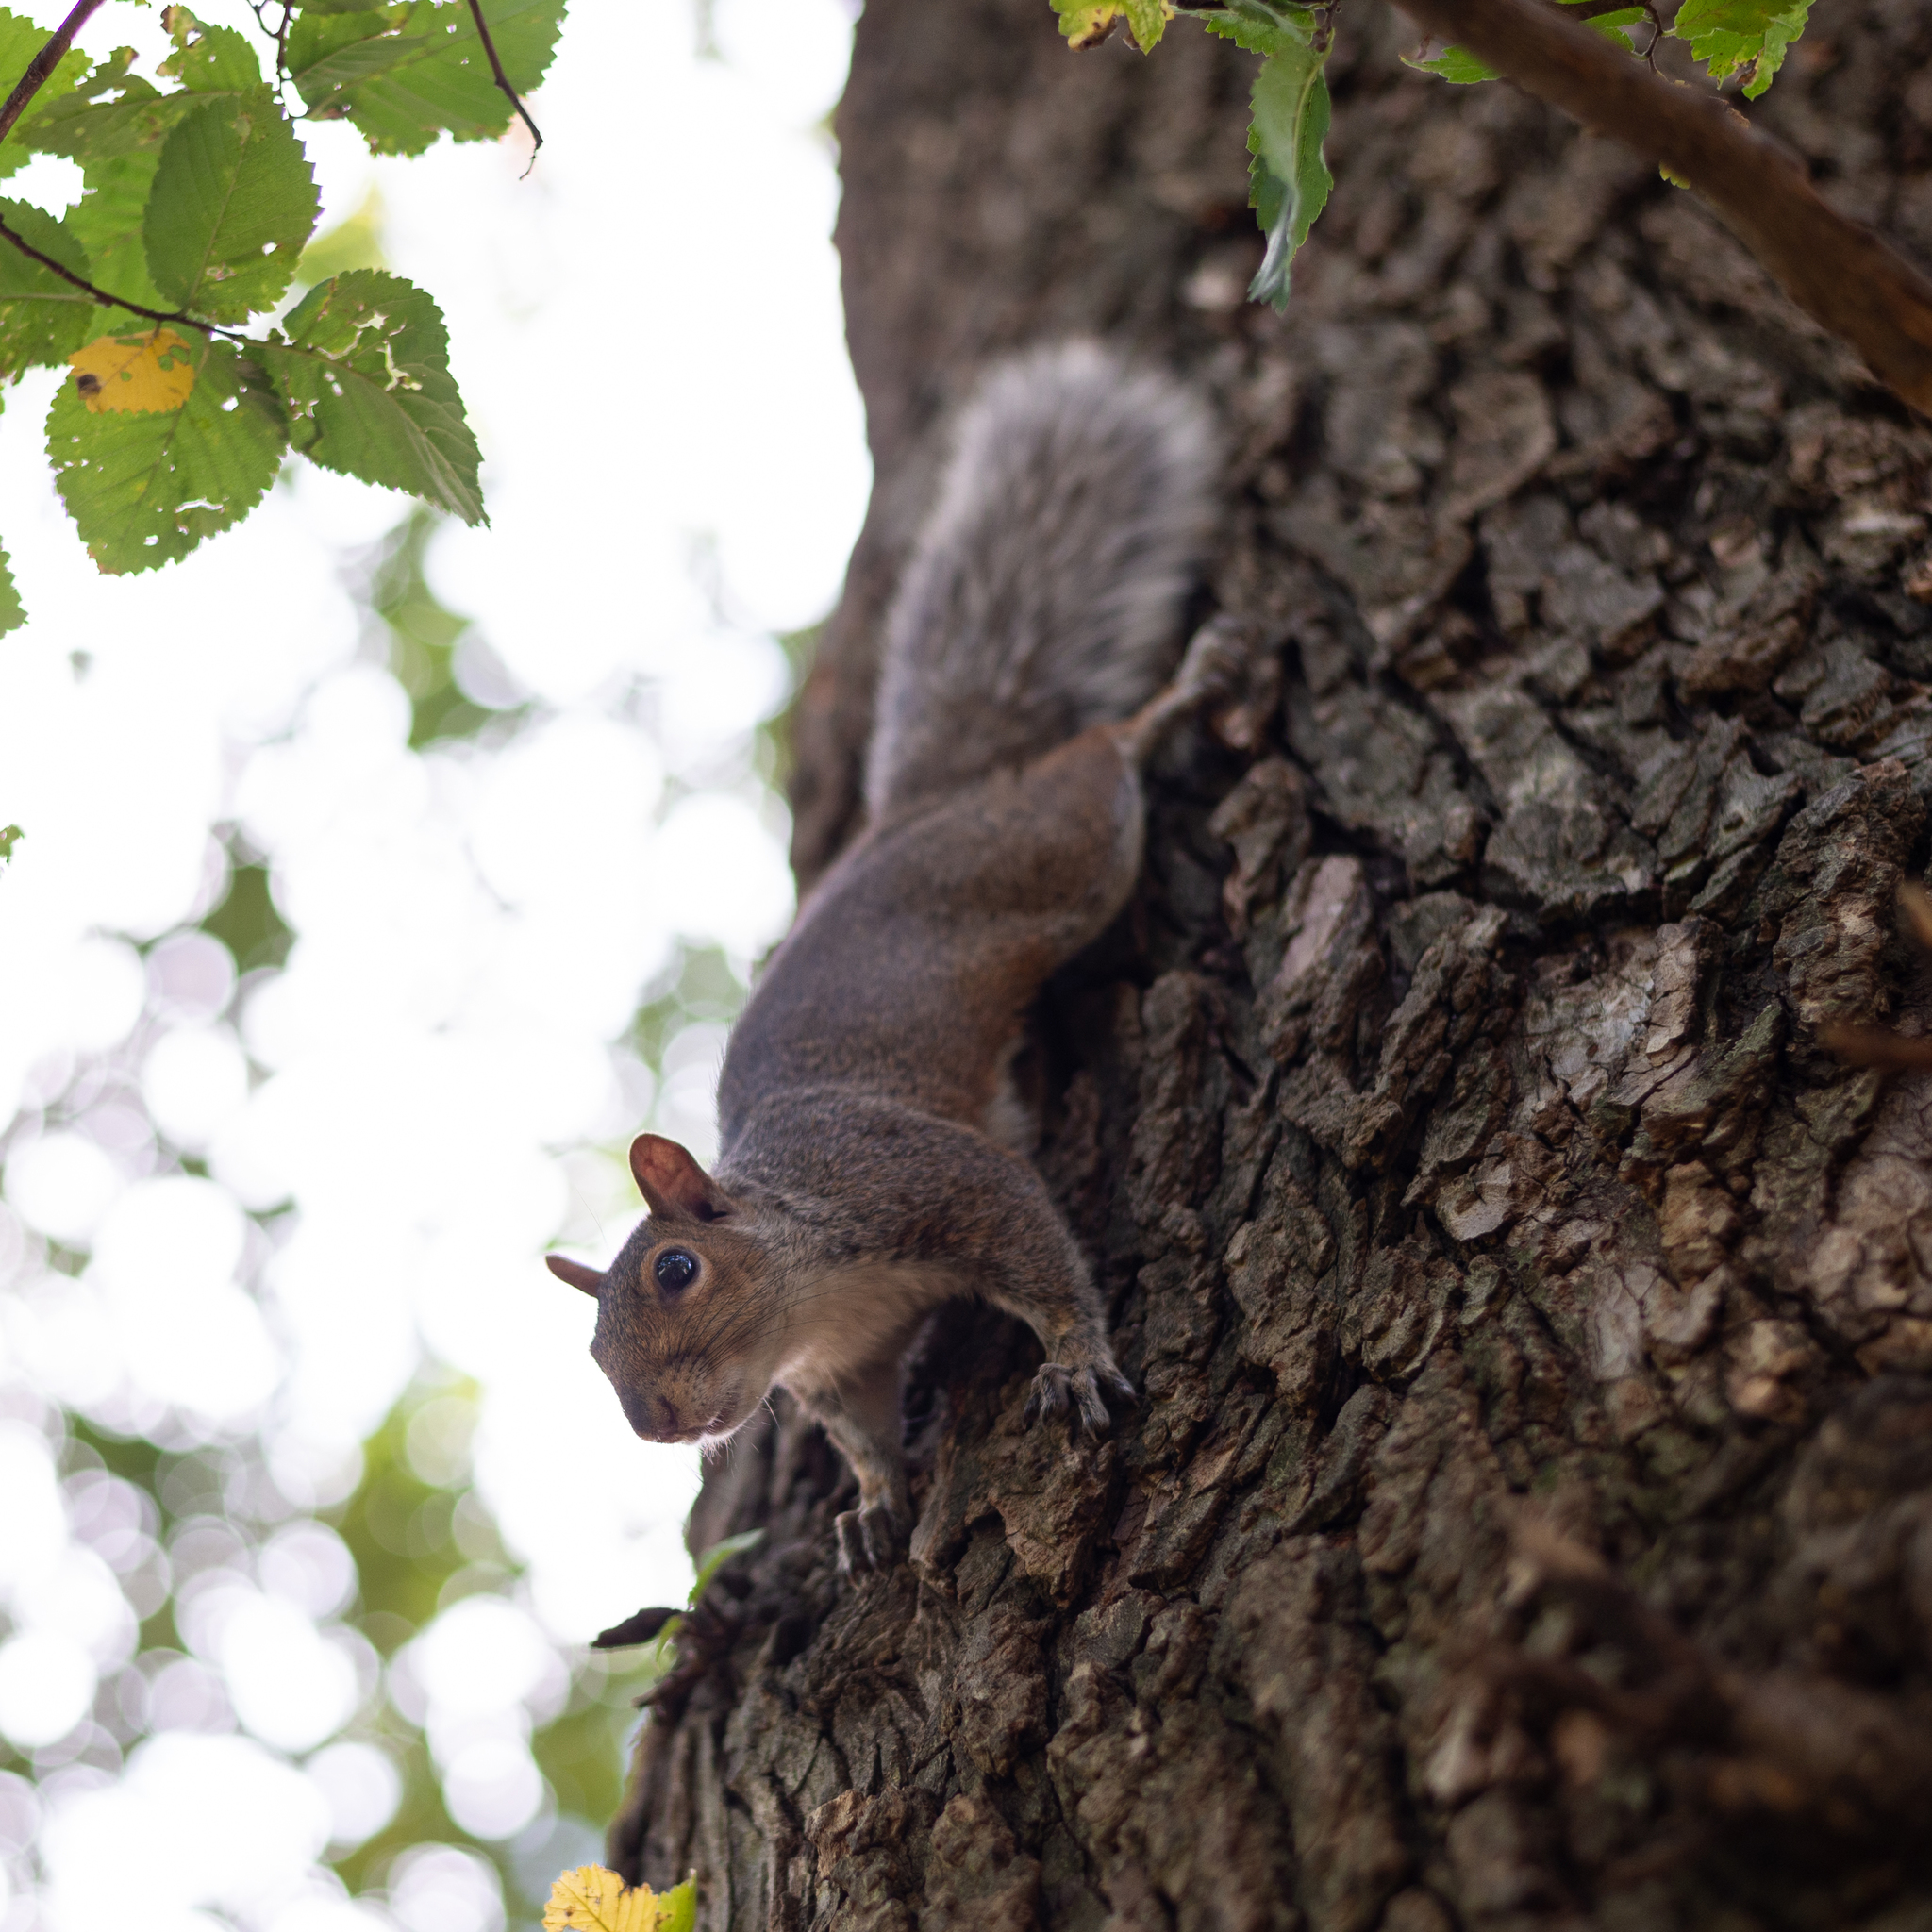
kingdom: Animalia
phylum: Chordata
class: Mammalia
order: Rodentia
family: Sciuridae
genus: Sciurus
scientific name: Sciurus carolinensis
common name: Eastern gray squirrel
